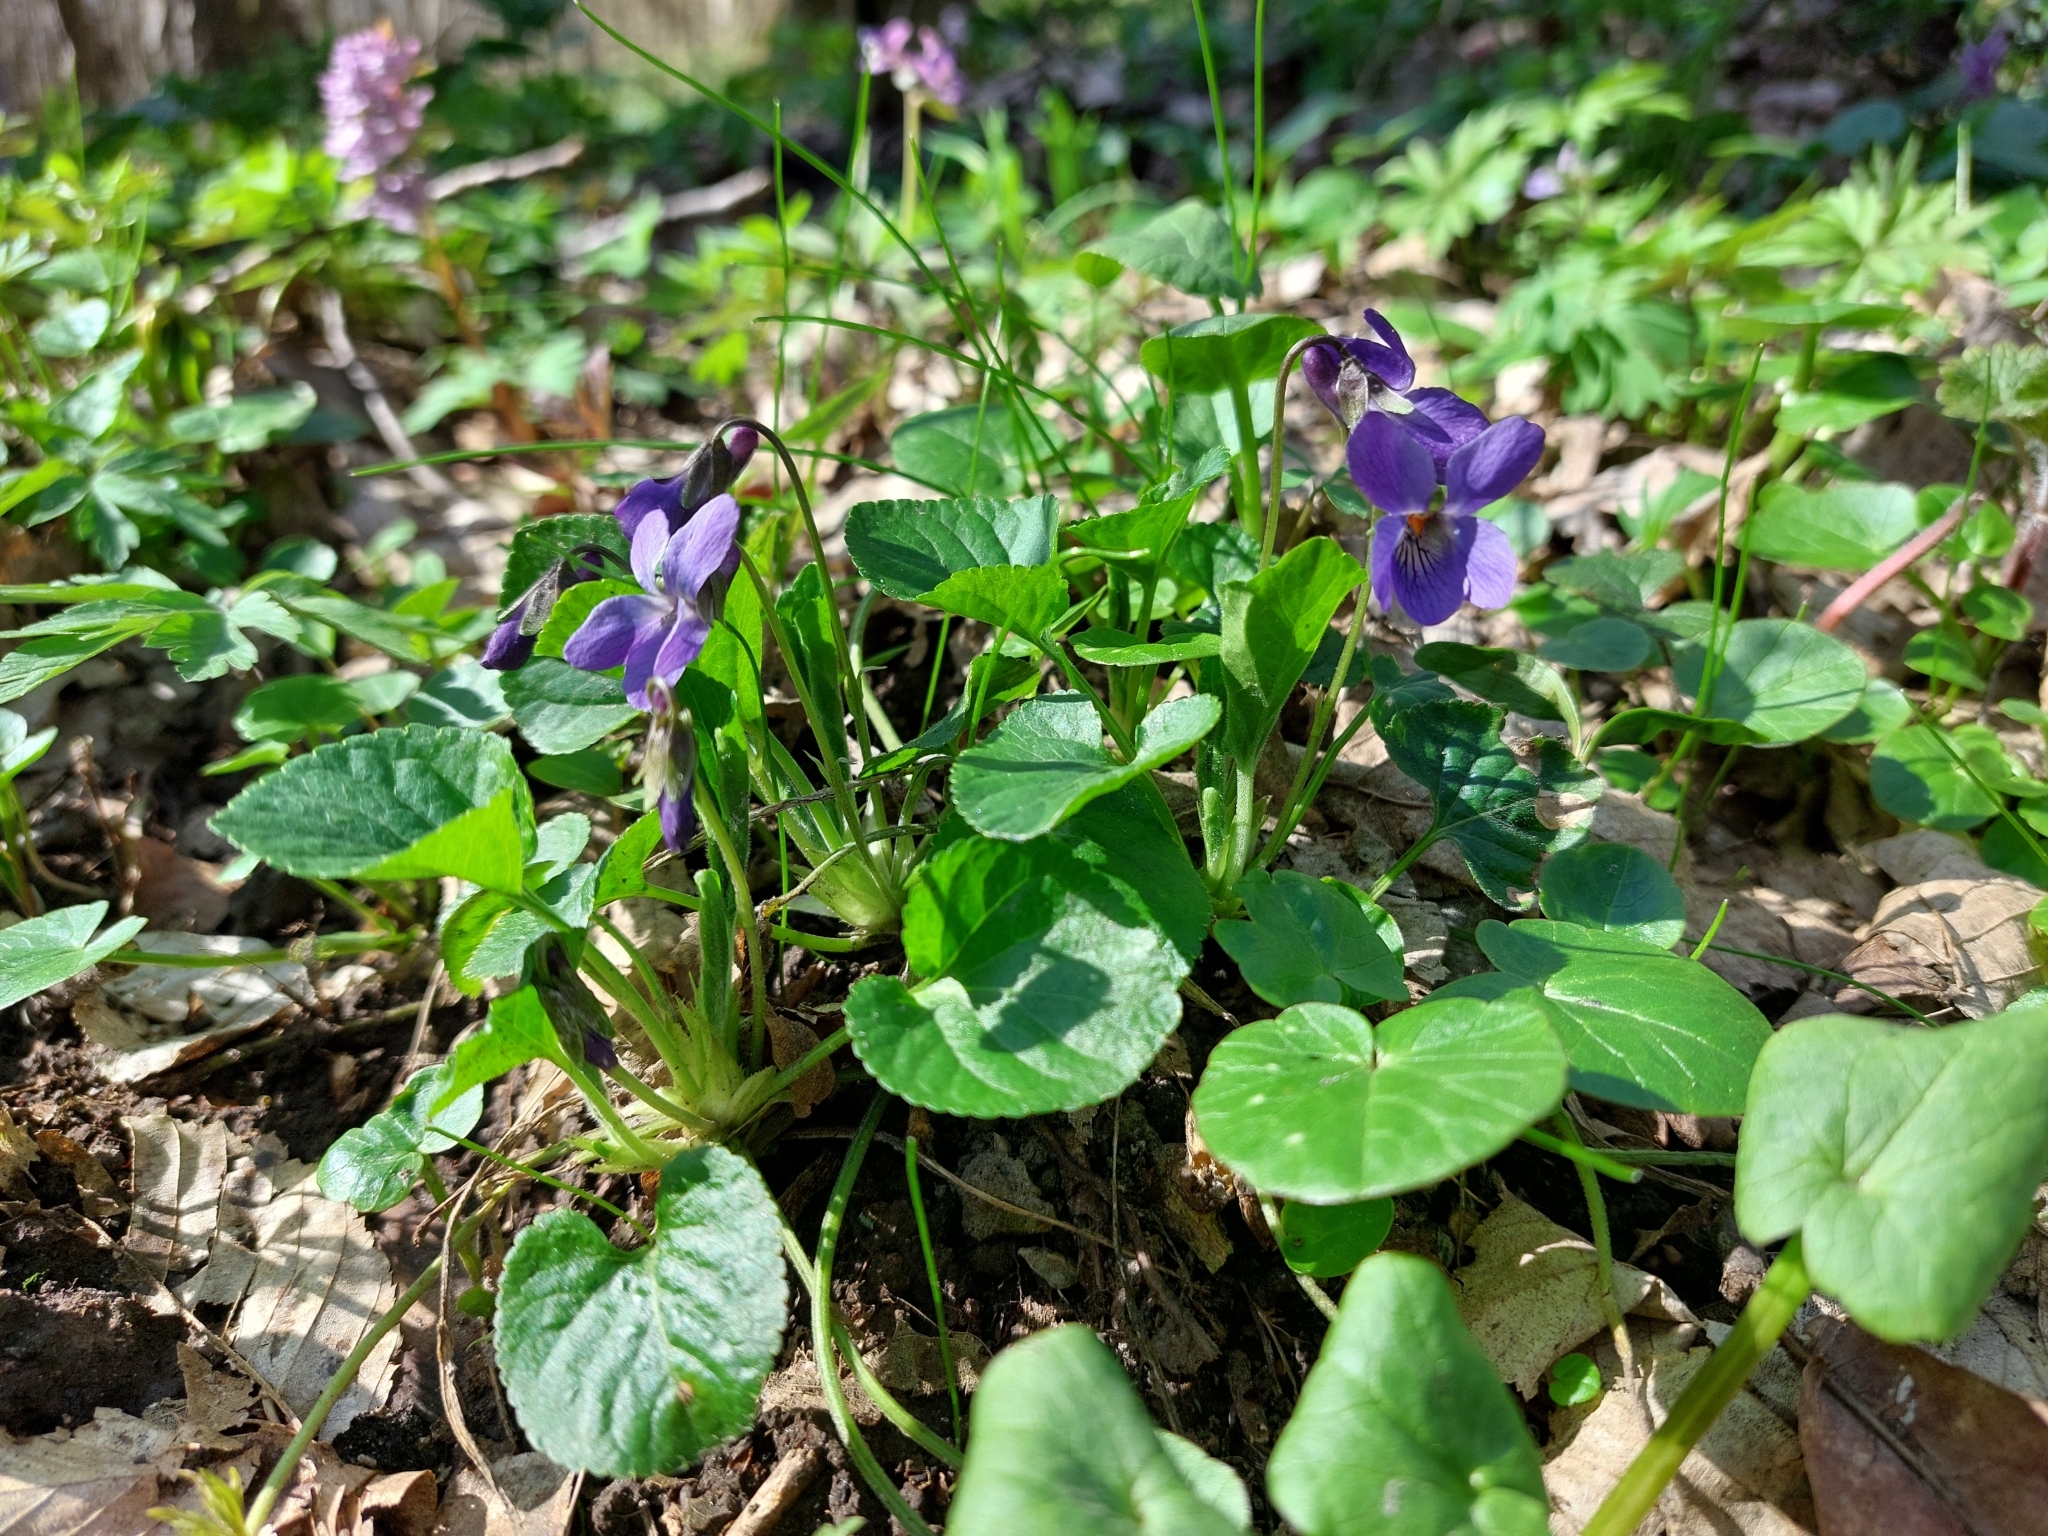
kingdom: Plantae
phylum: Tracheophyta
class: Magnoliopsida
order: Malpighiales
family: Violaceae
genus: Viola
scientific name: Viola odorata
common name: Sweet violet
